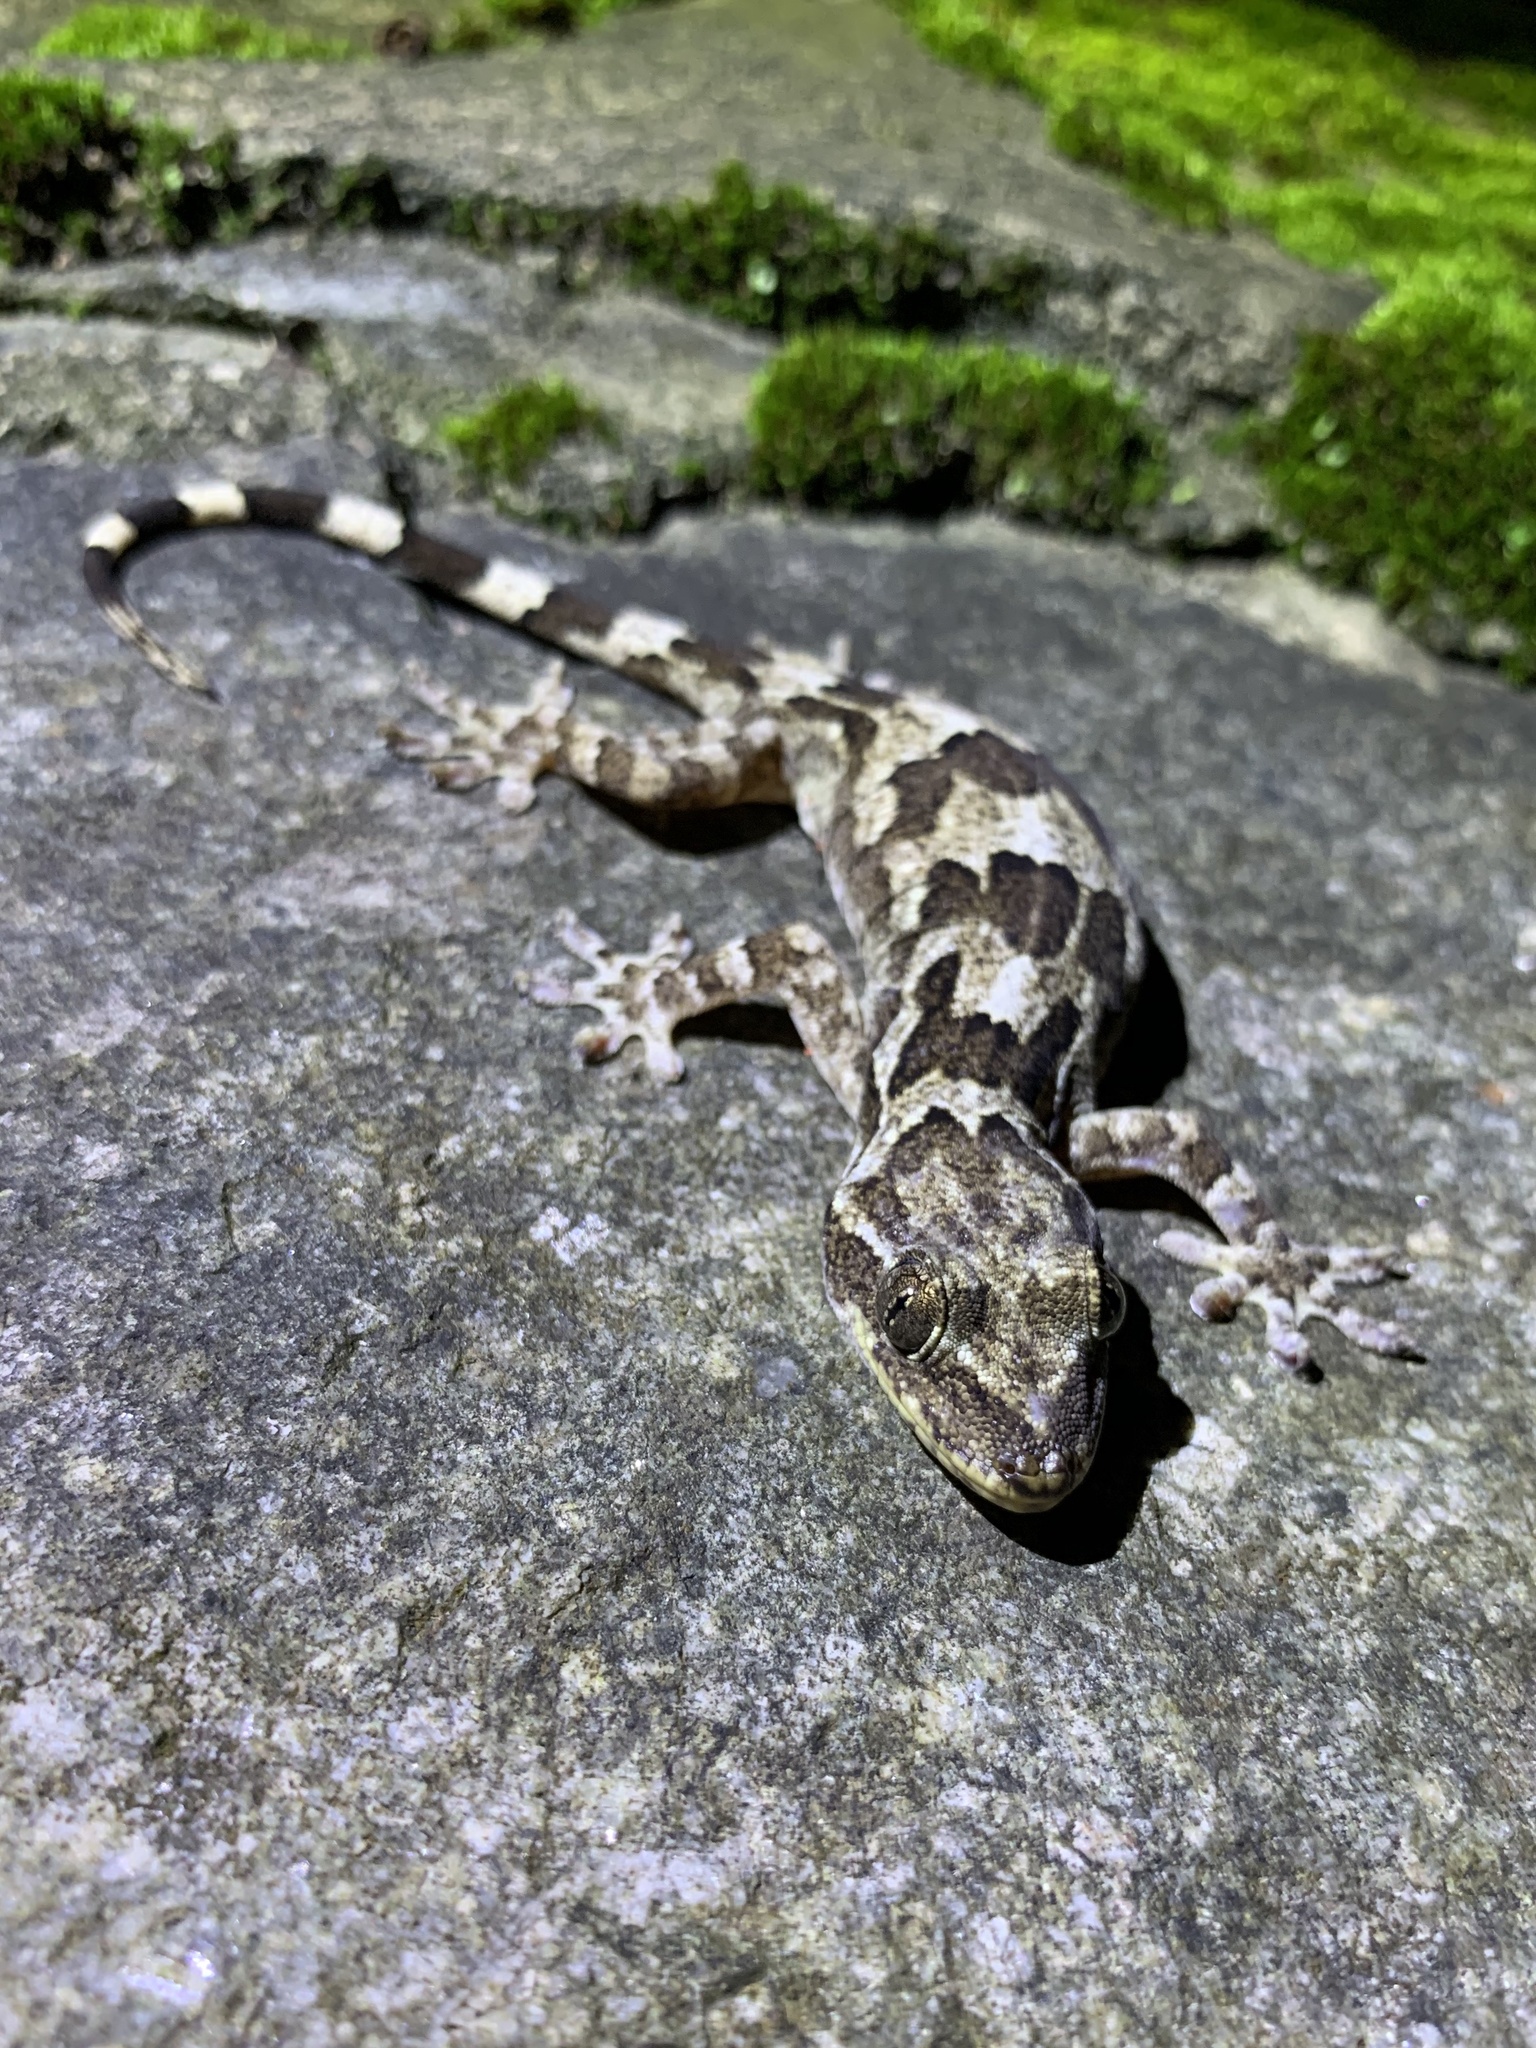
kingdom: Animalia
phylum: Chordata
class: Squamata
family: Gekkonidae
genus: Gekko
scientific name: Gekko melli
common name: Mell’s gecko
